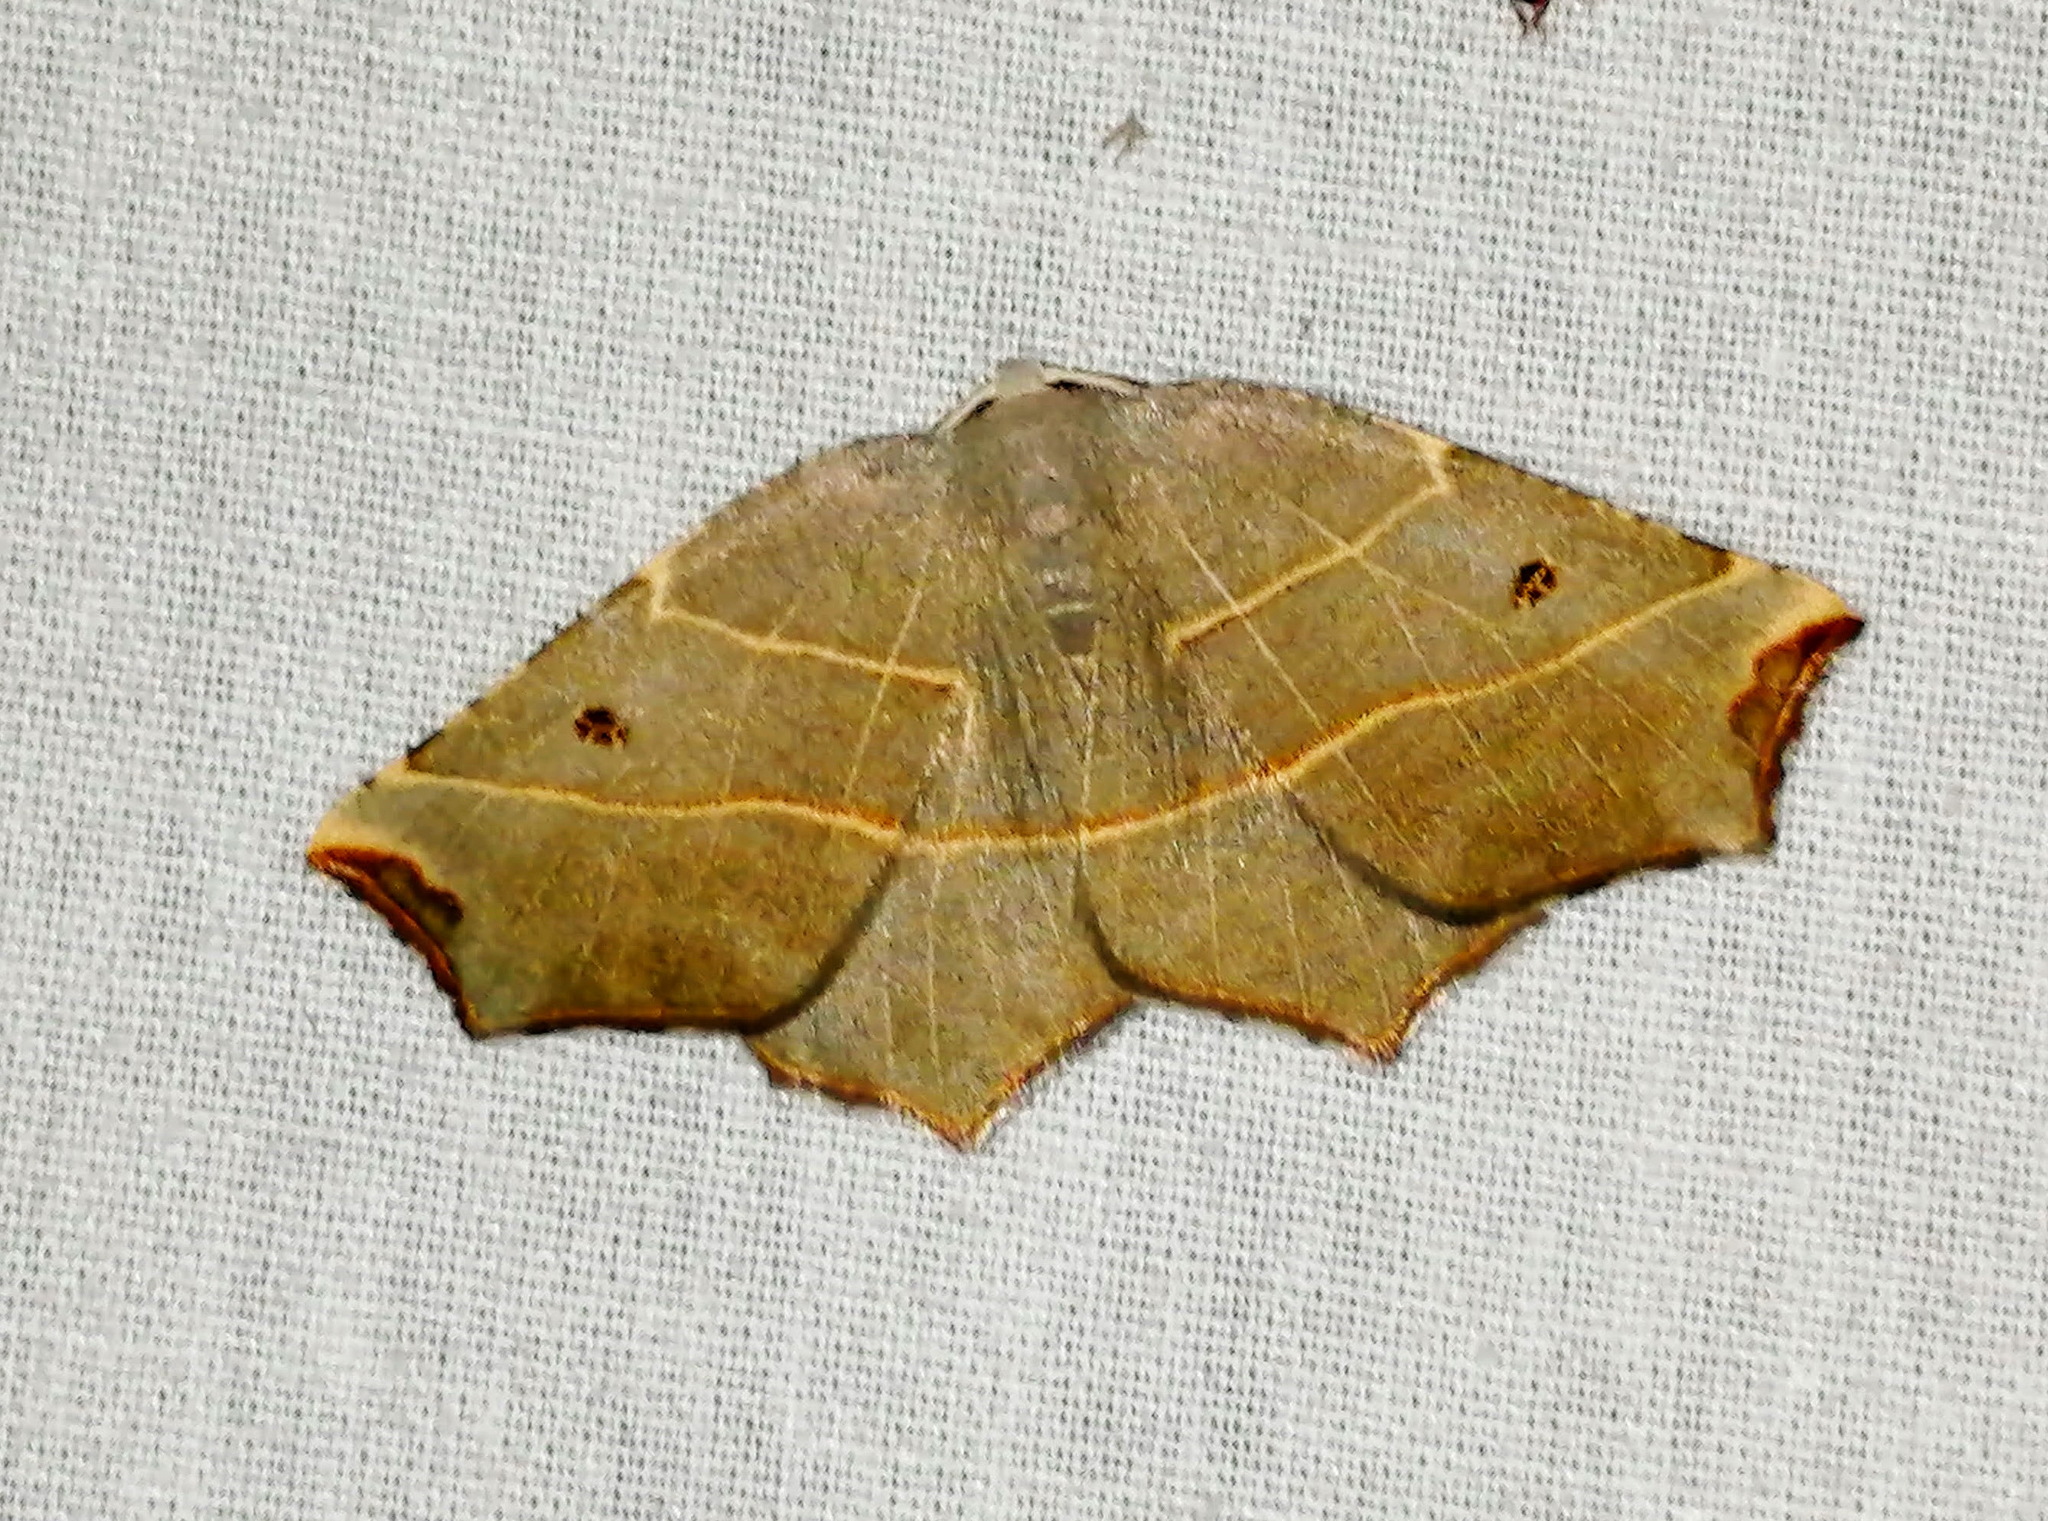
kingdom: Animalia
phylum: Arthropoda
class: Insecta
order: Lepidoptera
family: Geometridae
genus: Metanema
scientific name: Metanema inatomaria
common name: Pale metanema
